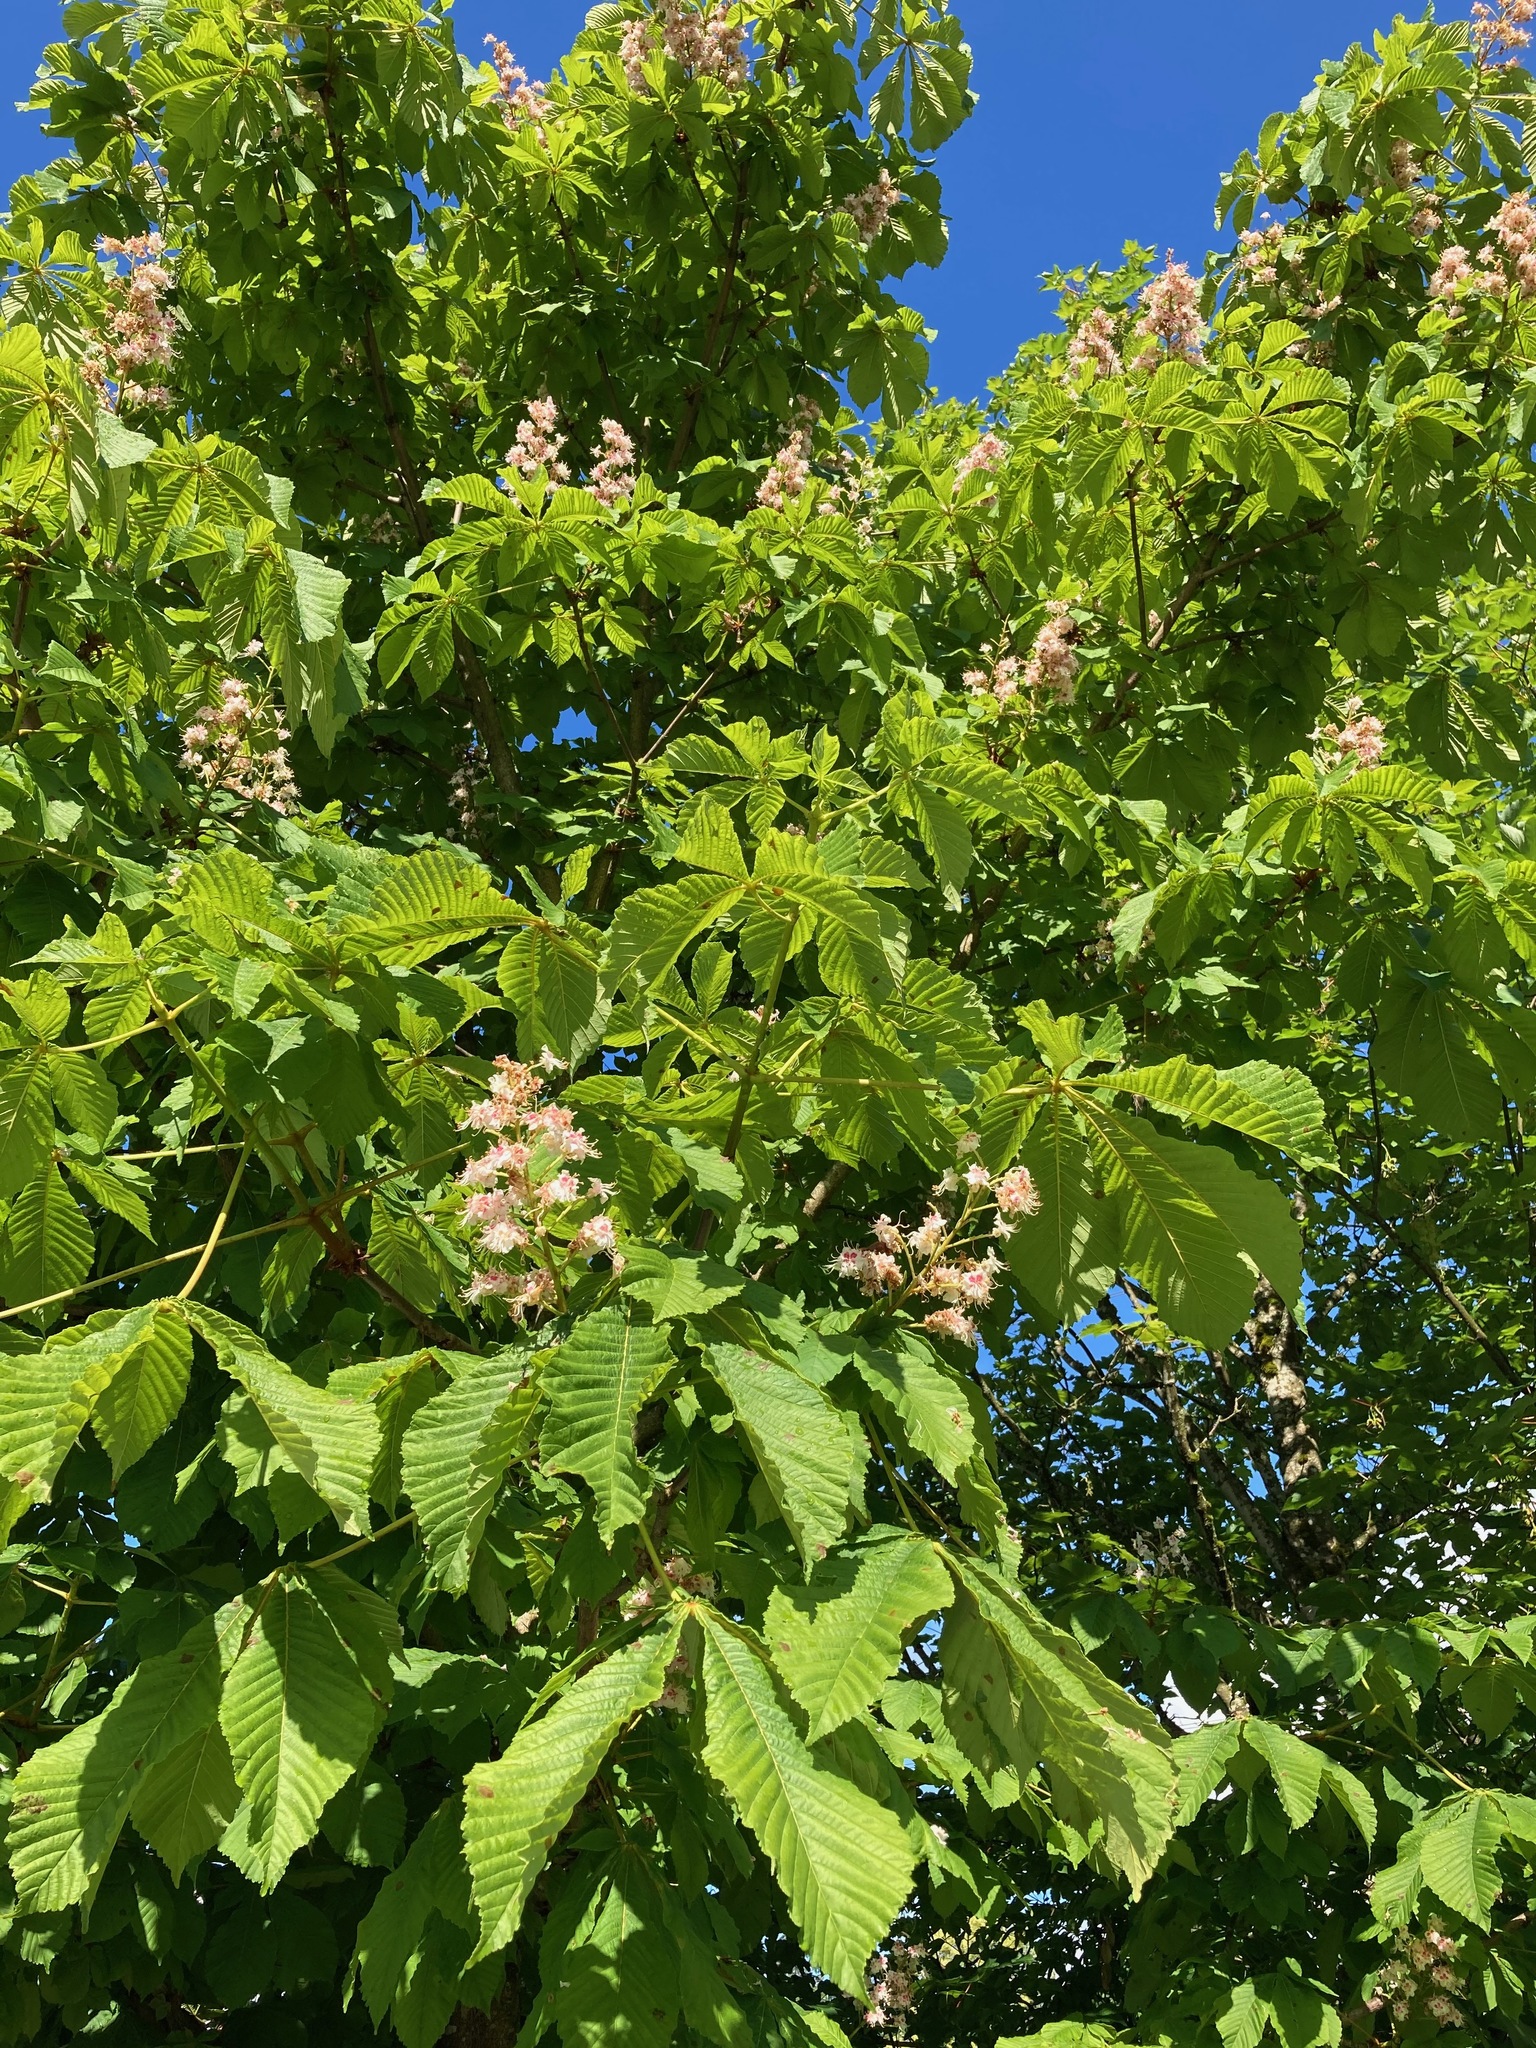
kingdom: Plantae
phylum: Tracheophyta
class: Magnoliopsida
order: Sapindales
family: Sapindaceae
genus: Aesculus
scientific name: Aesculus hippocastanum
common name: Horse-chestnut
